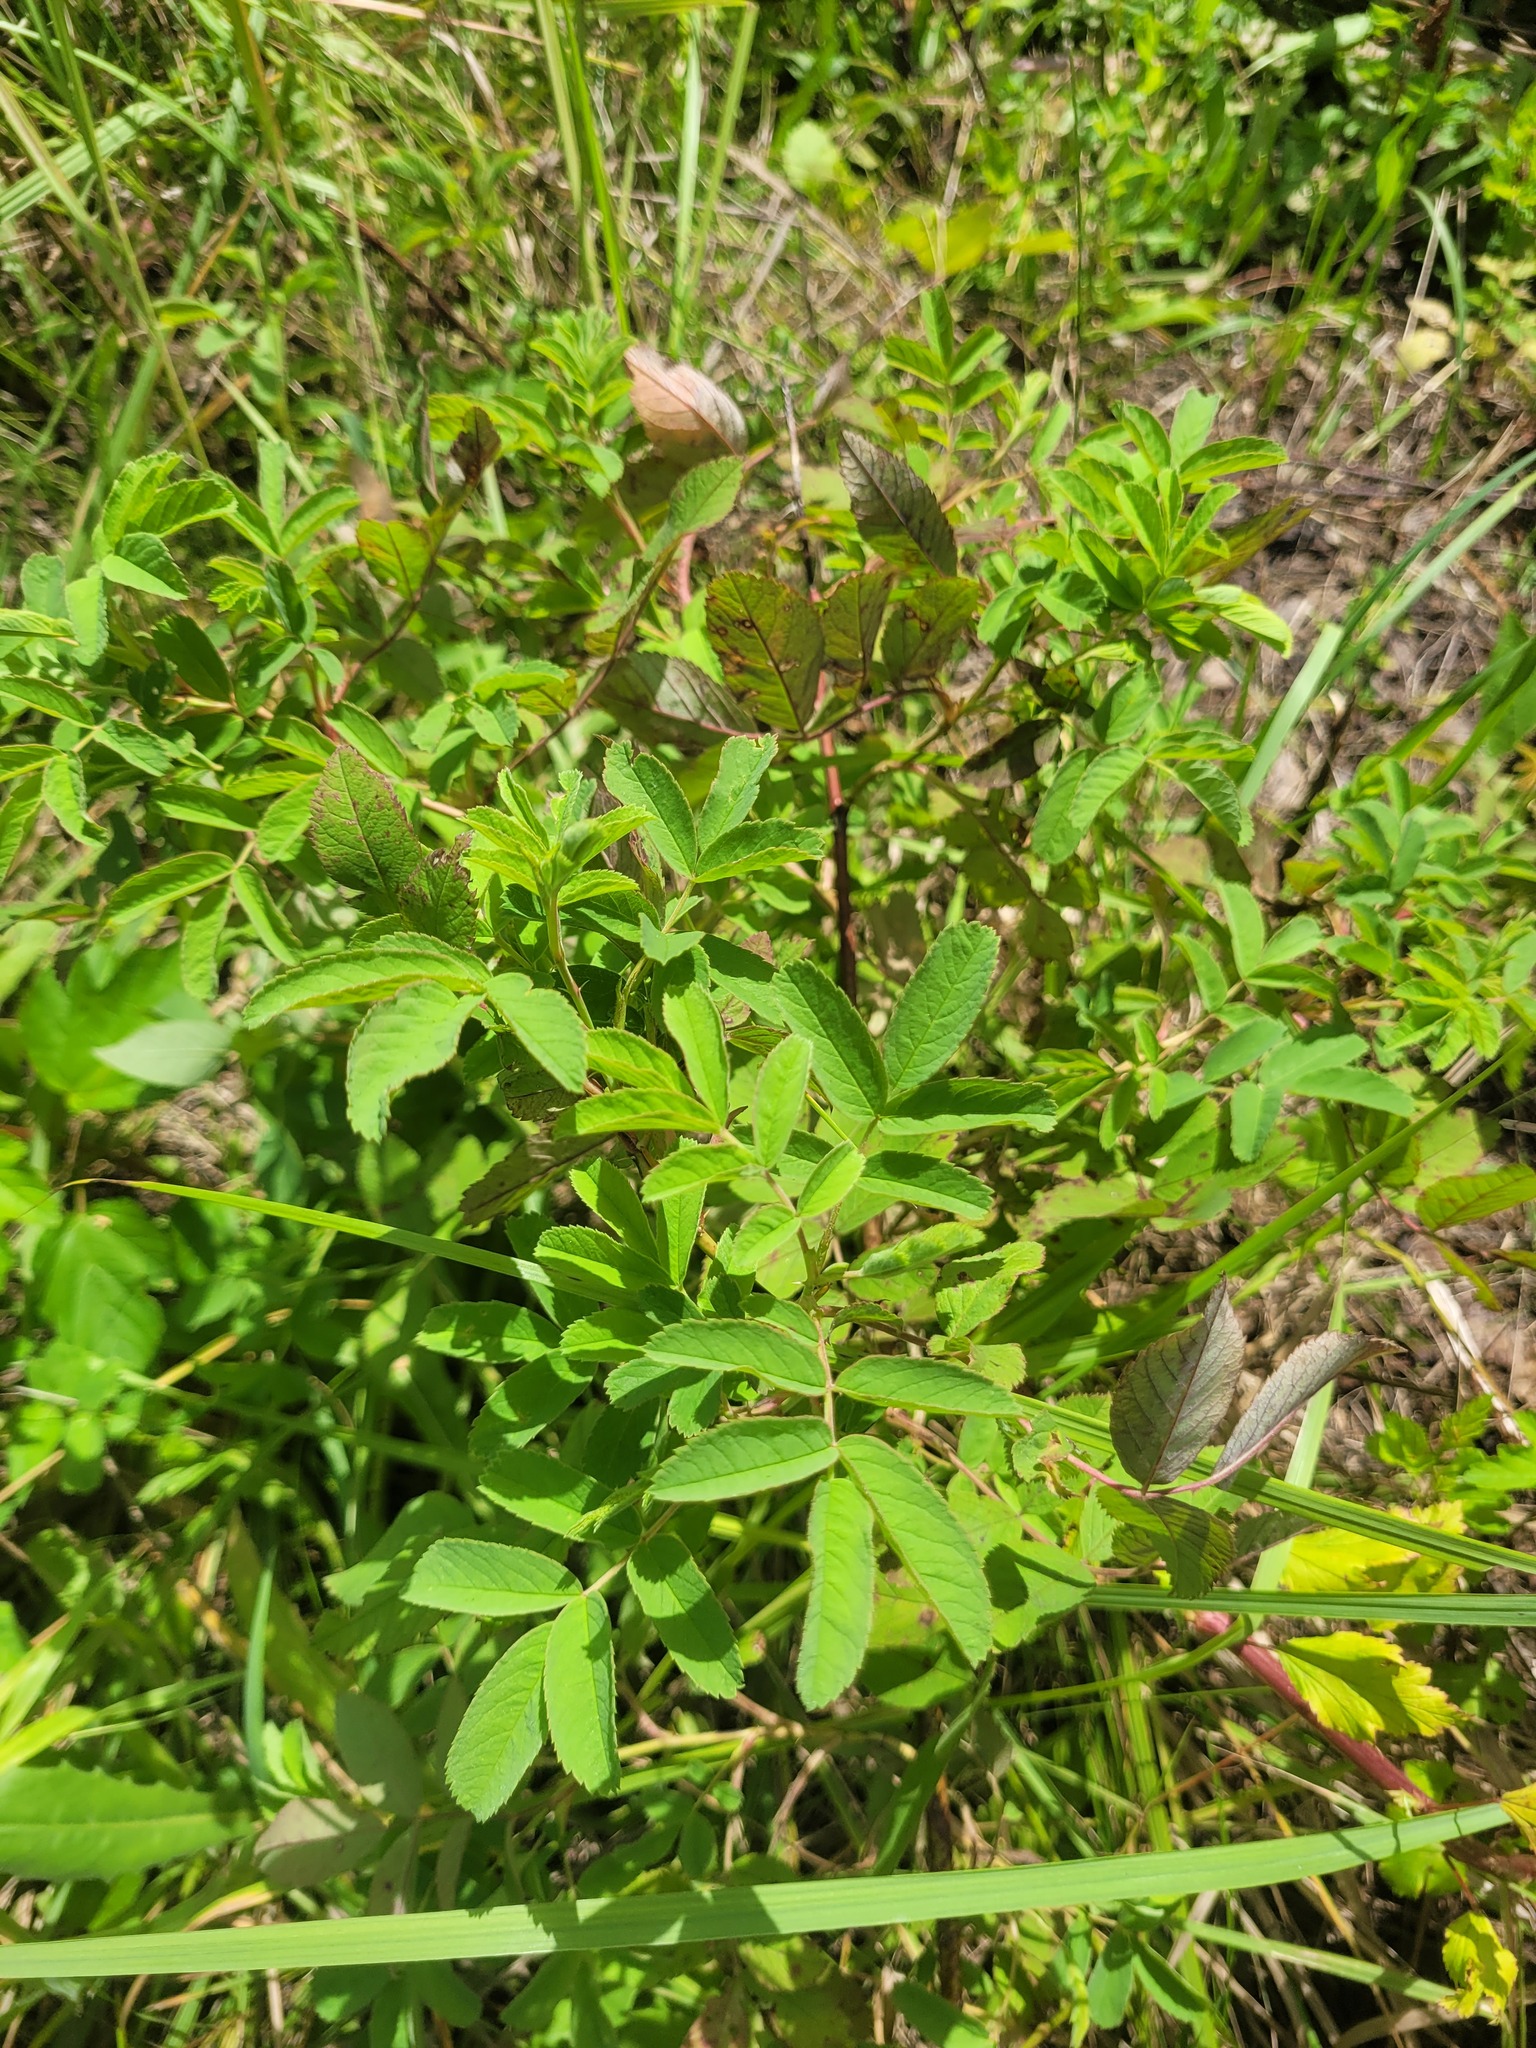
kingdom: Plantae
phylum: Tracheophyta
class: Magnoliopsida
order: Rosales
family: Rosaceae
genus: Rosa
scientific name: Rosa majalis
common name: Cinnamon rose
